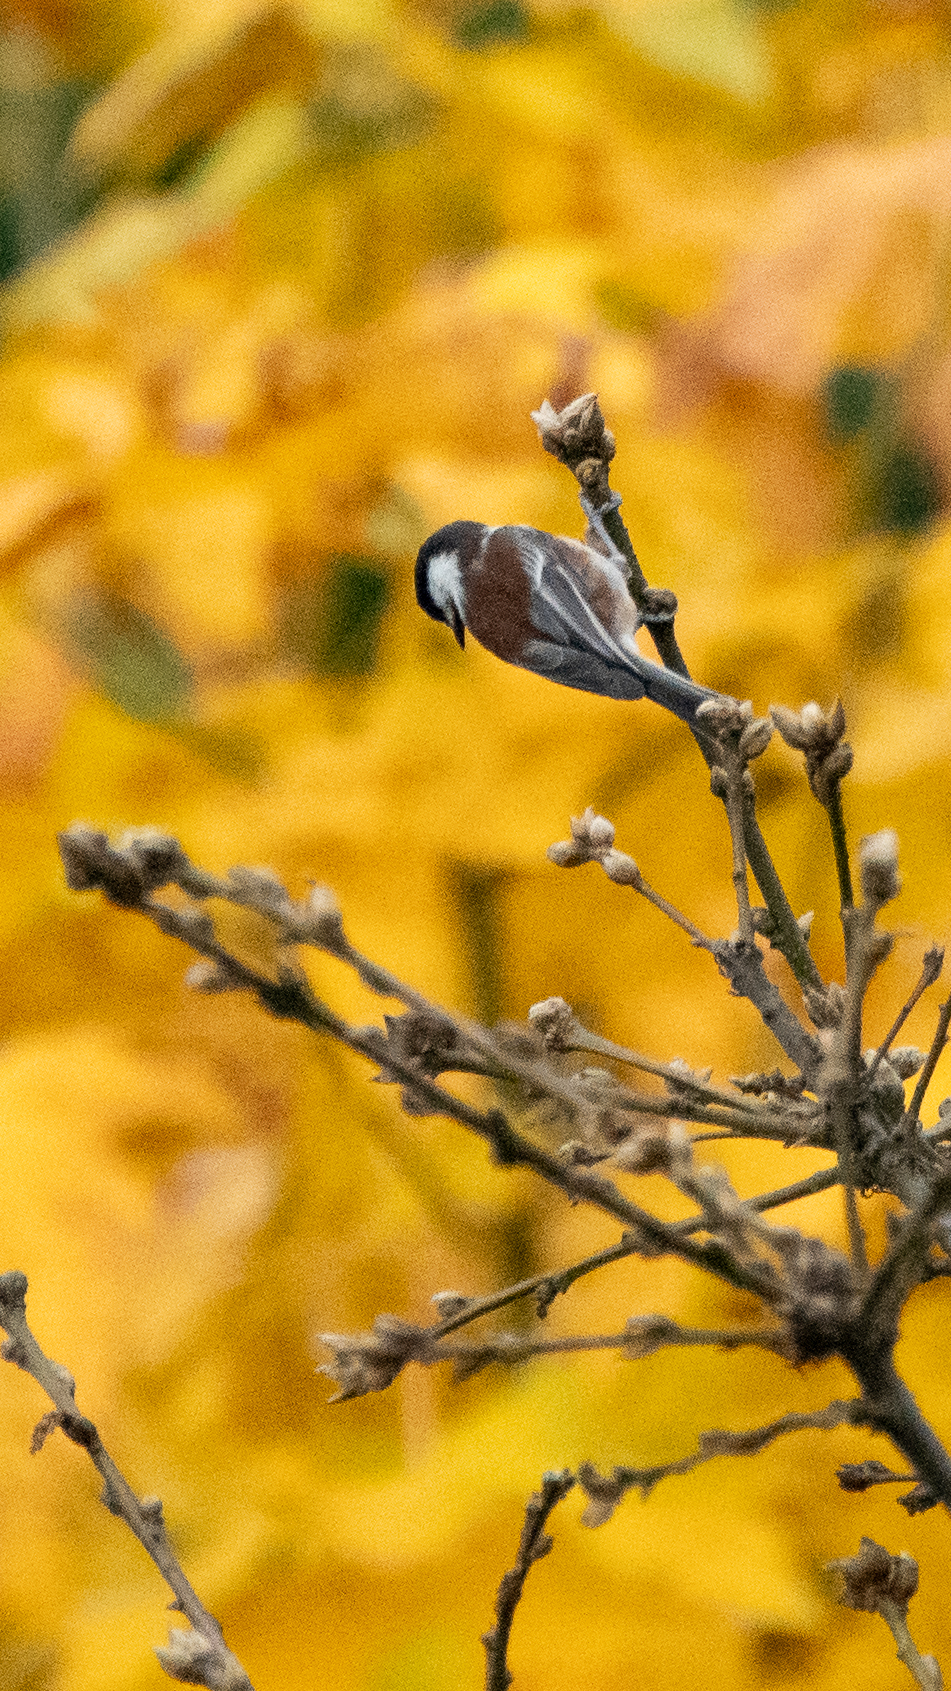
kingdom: Animalia
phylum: Chordata
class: Aves
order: Passeriformes
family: Paridae
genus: Poecile
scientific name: Poecile rufescens
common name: Chestnut-backed chickadee
